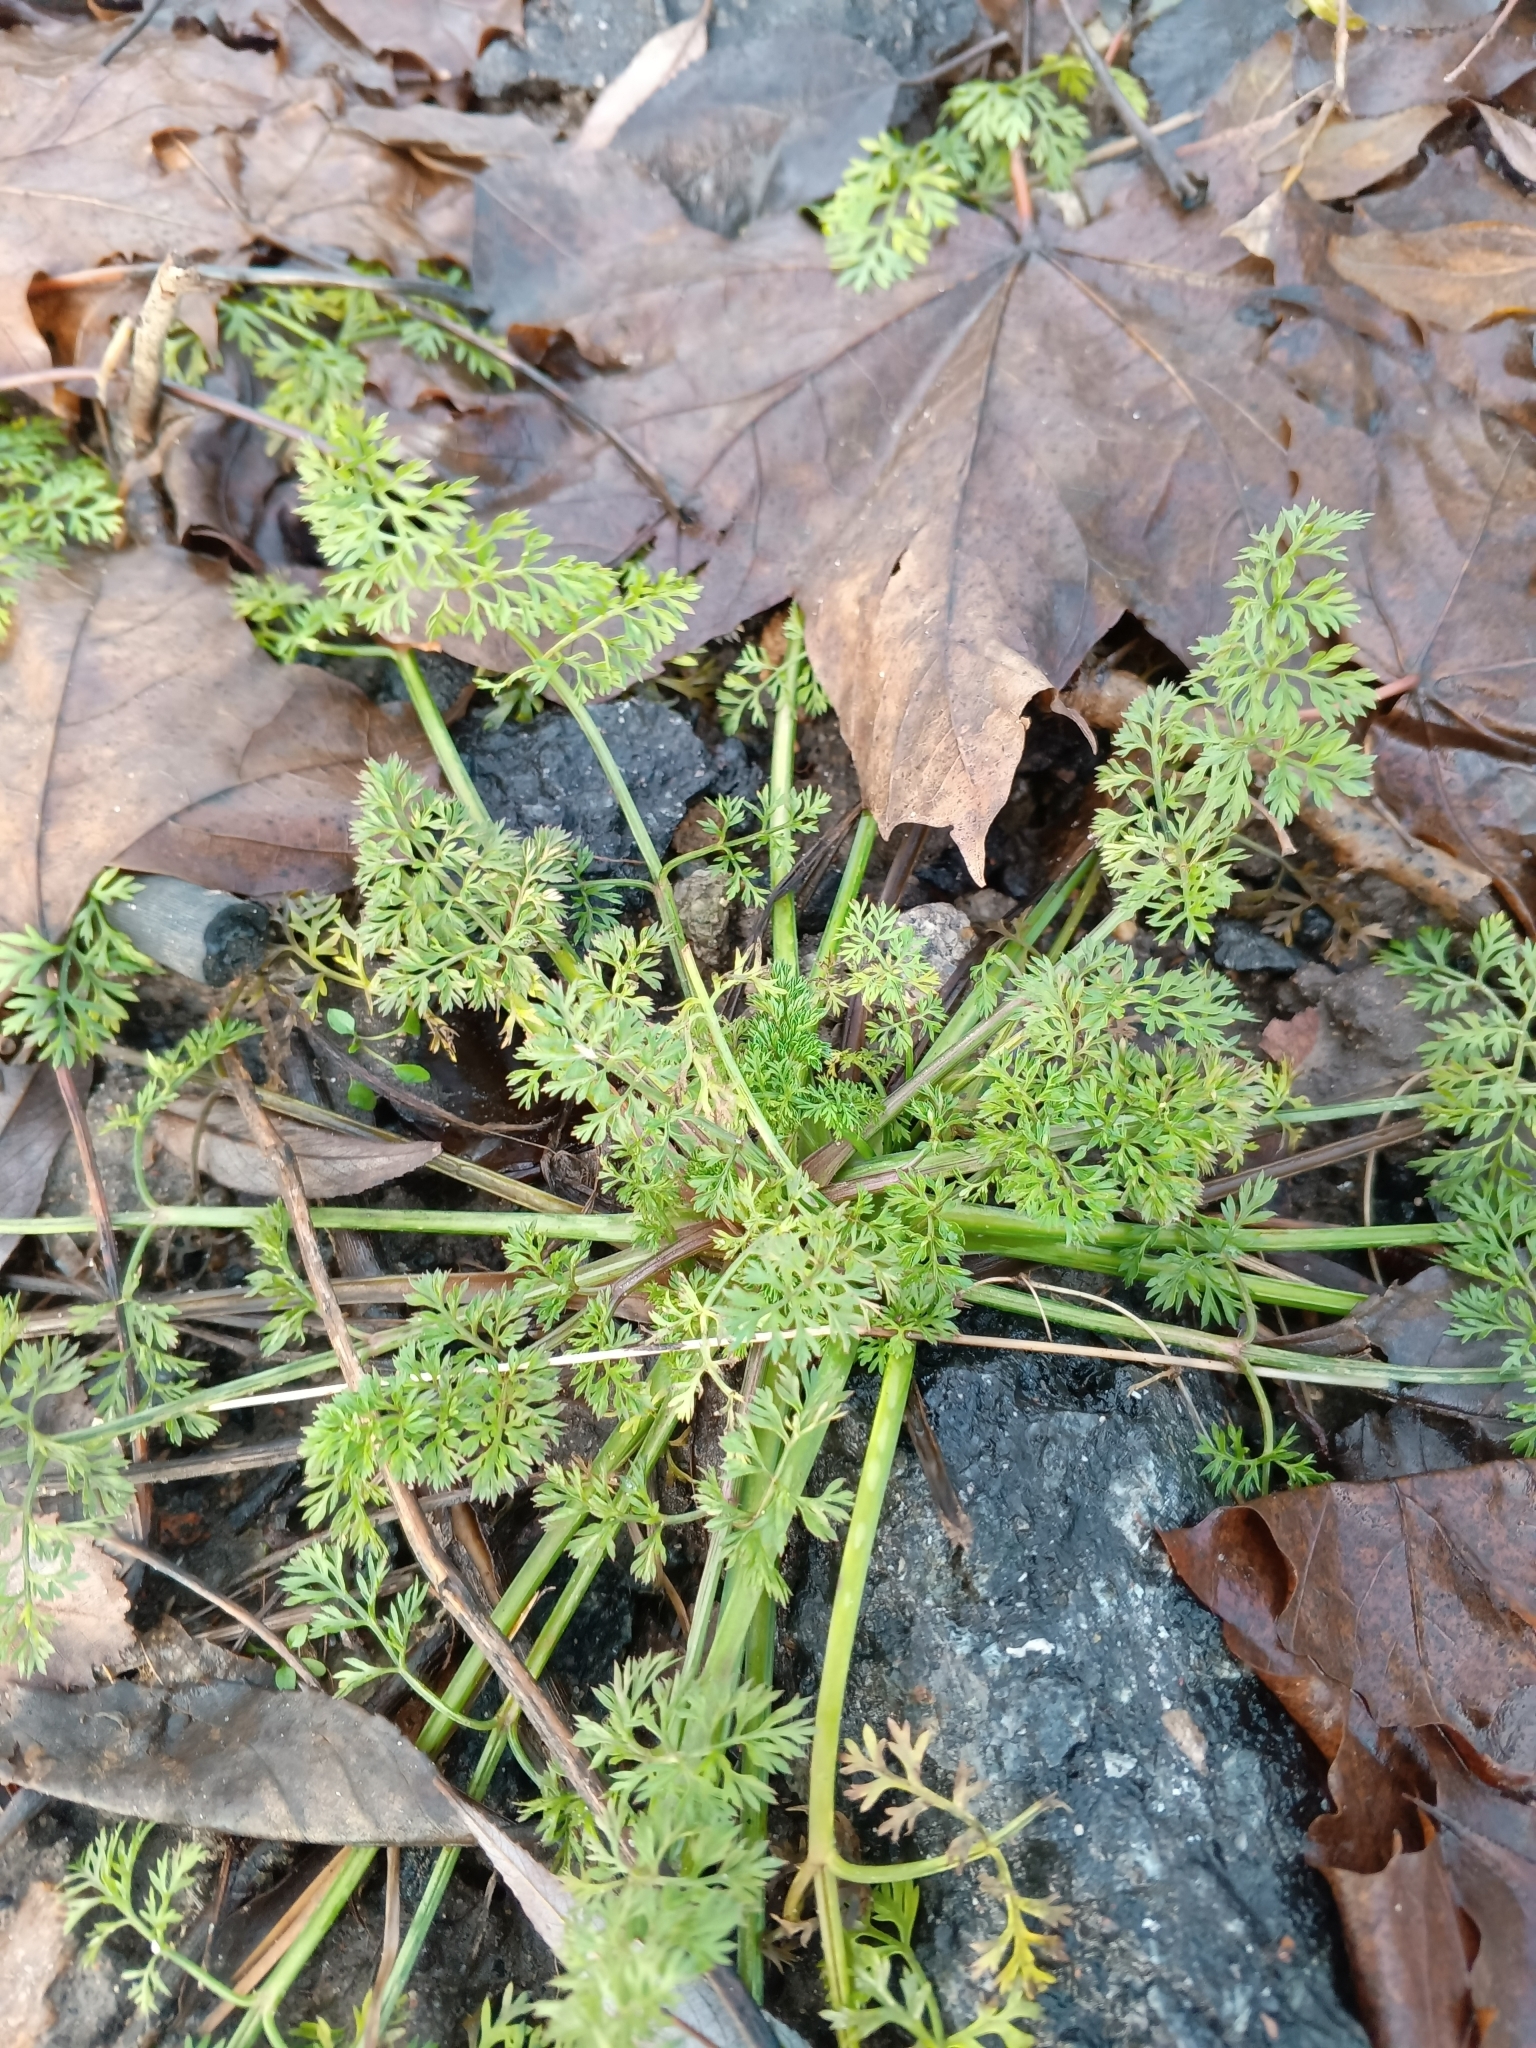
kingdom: Plantae
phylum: Tracheophyta
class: Magnoliopsida
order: Apiales
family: Apiaceae
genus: Daucus
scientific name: Daucus carota
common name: Wild carrot
